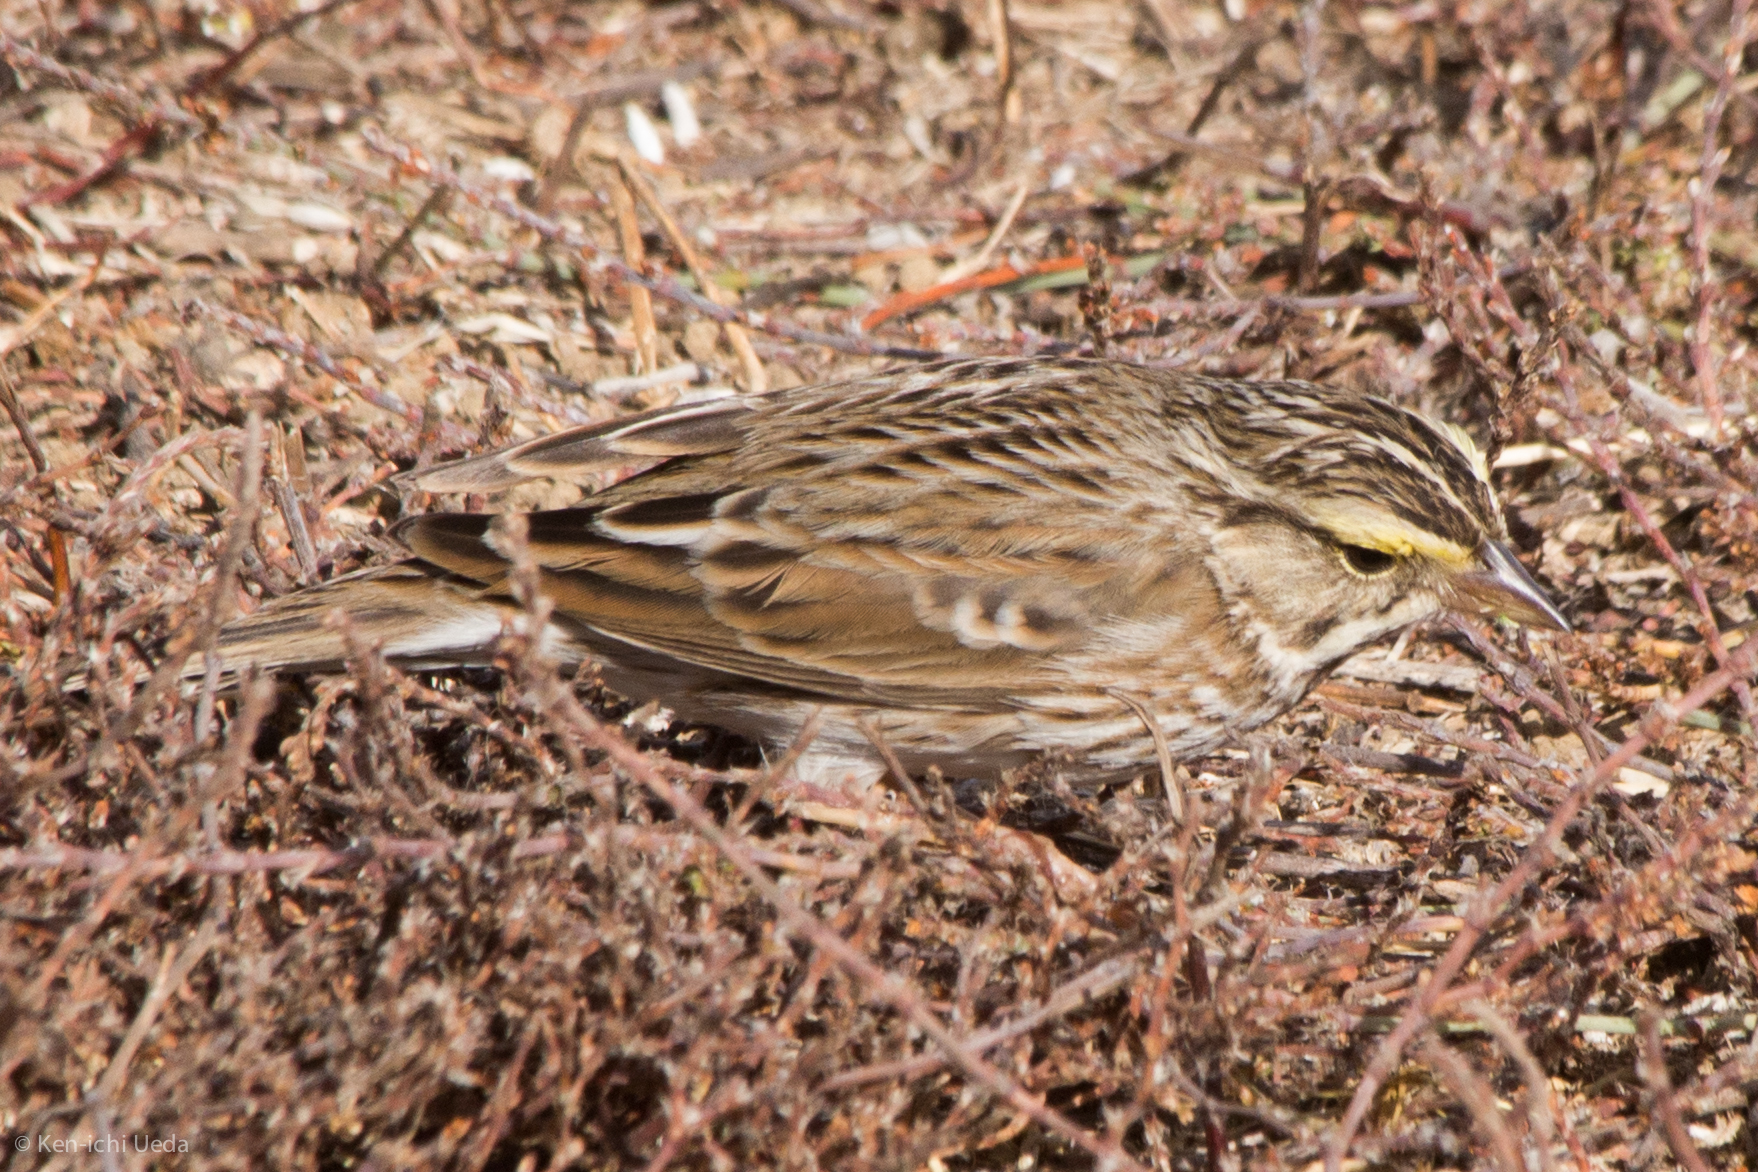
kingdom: Animalia
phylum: Chordata
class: Aves
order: Passeriformes
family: Passerellidae
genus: Passerculus
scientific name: Passerculus sandwichensis
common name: Savannah sparrow
